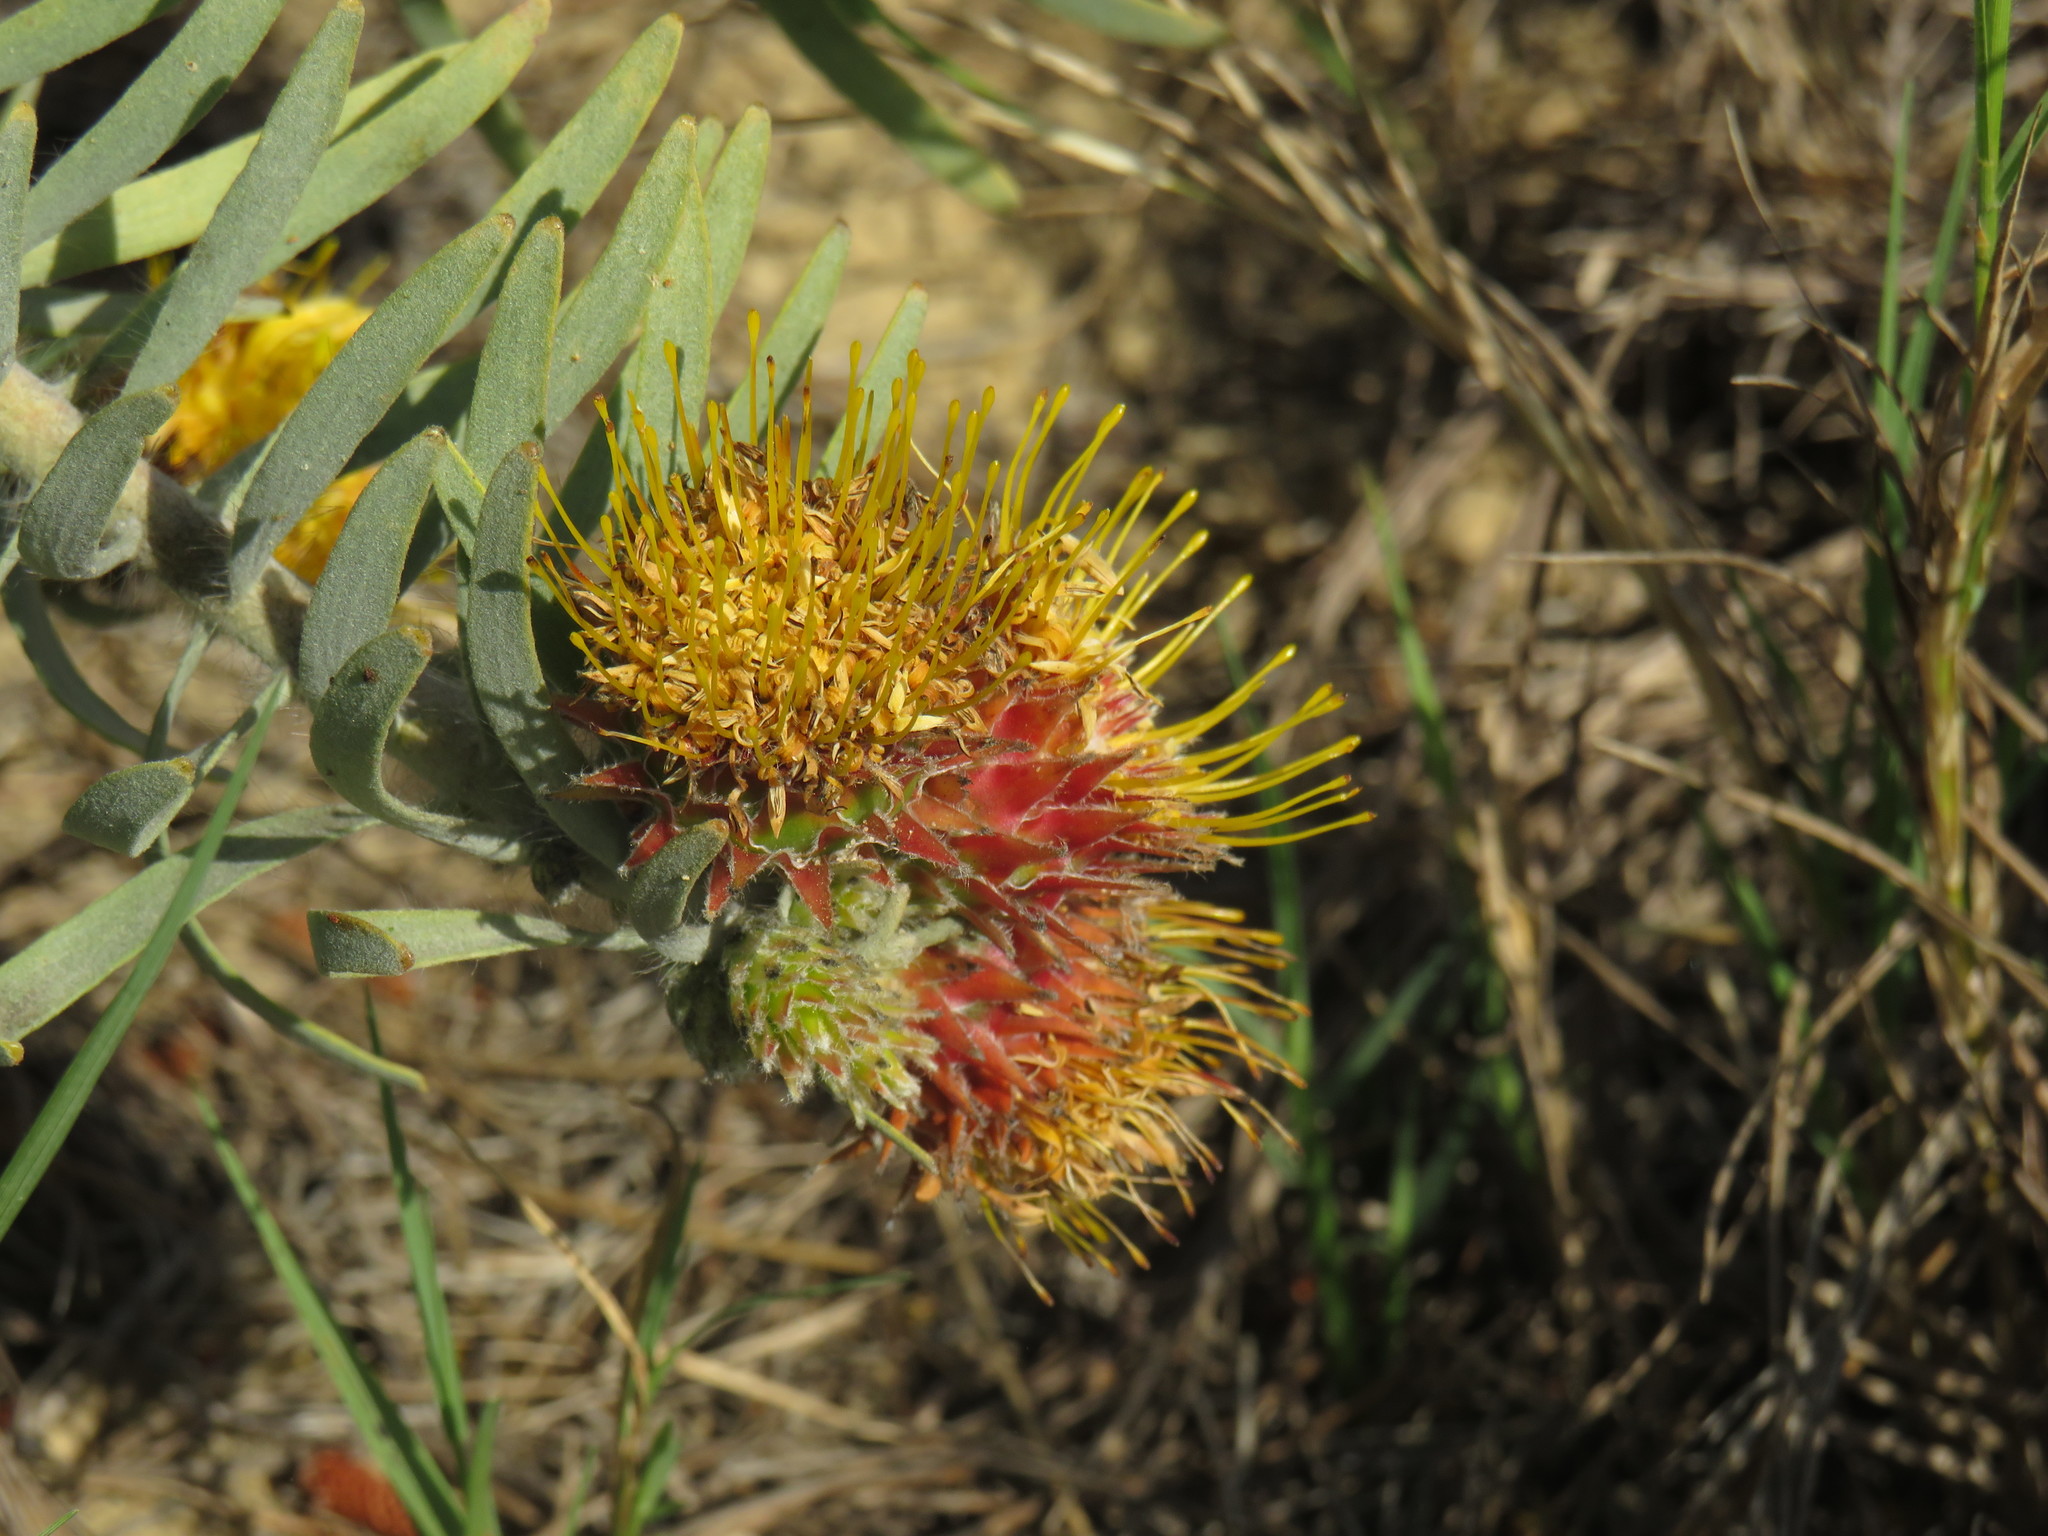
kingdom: Plantae
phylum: Tracheophyta
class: Magnoliopsida
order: Proteales
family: Proteaceae
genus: Leucospermum
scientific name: Leucospermum parile
